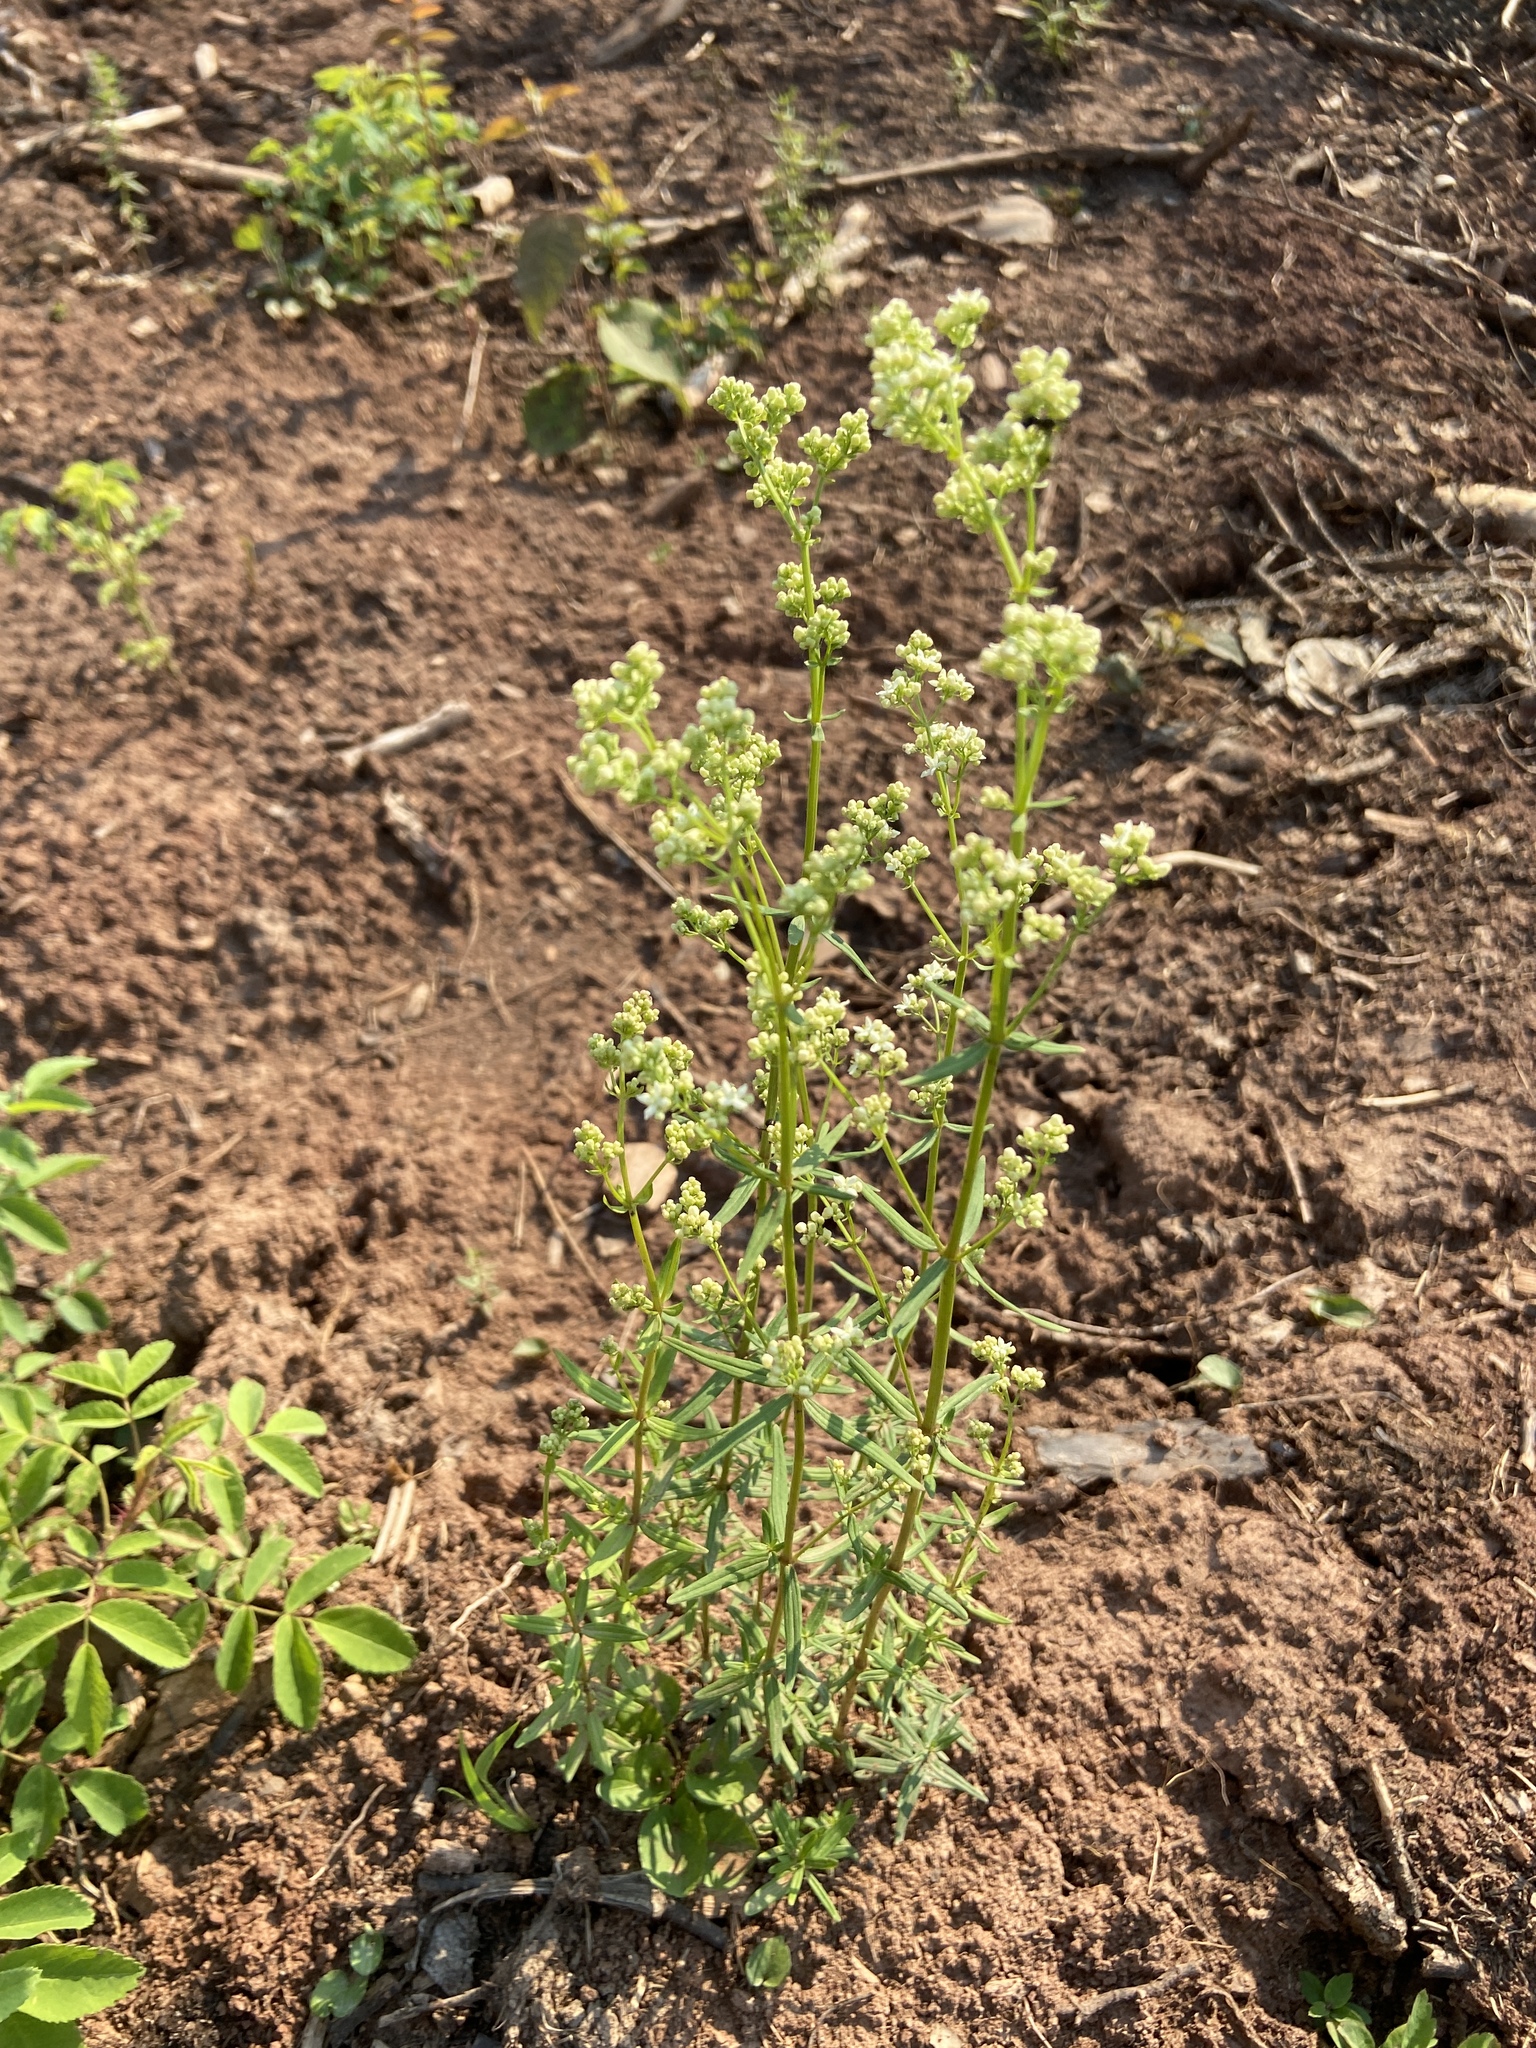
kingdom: Plantae
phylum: Tracheophyta
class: Magnoliopsida
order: Gentianales
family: Rubiaceae
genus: Galium
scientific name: Galium boreale
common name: Northern bedstraw
